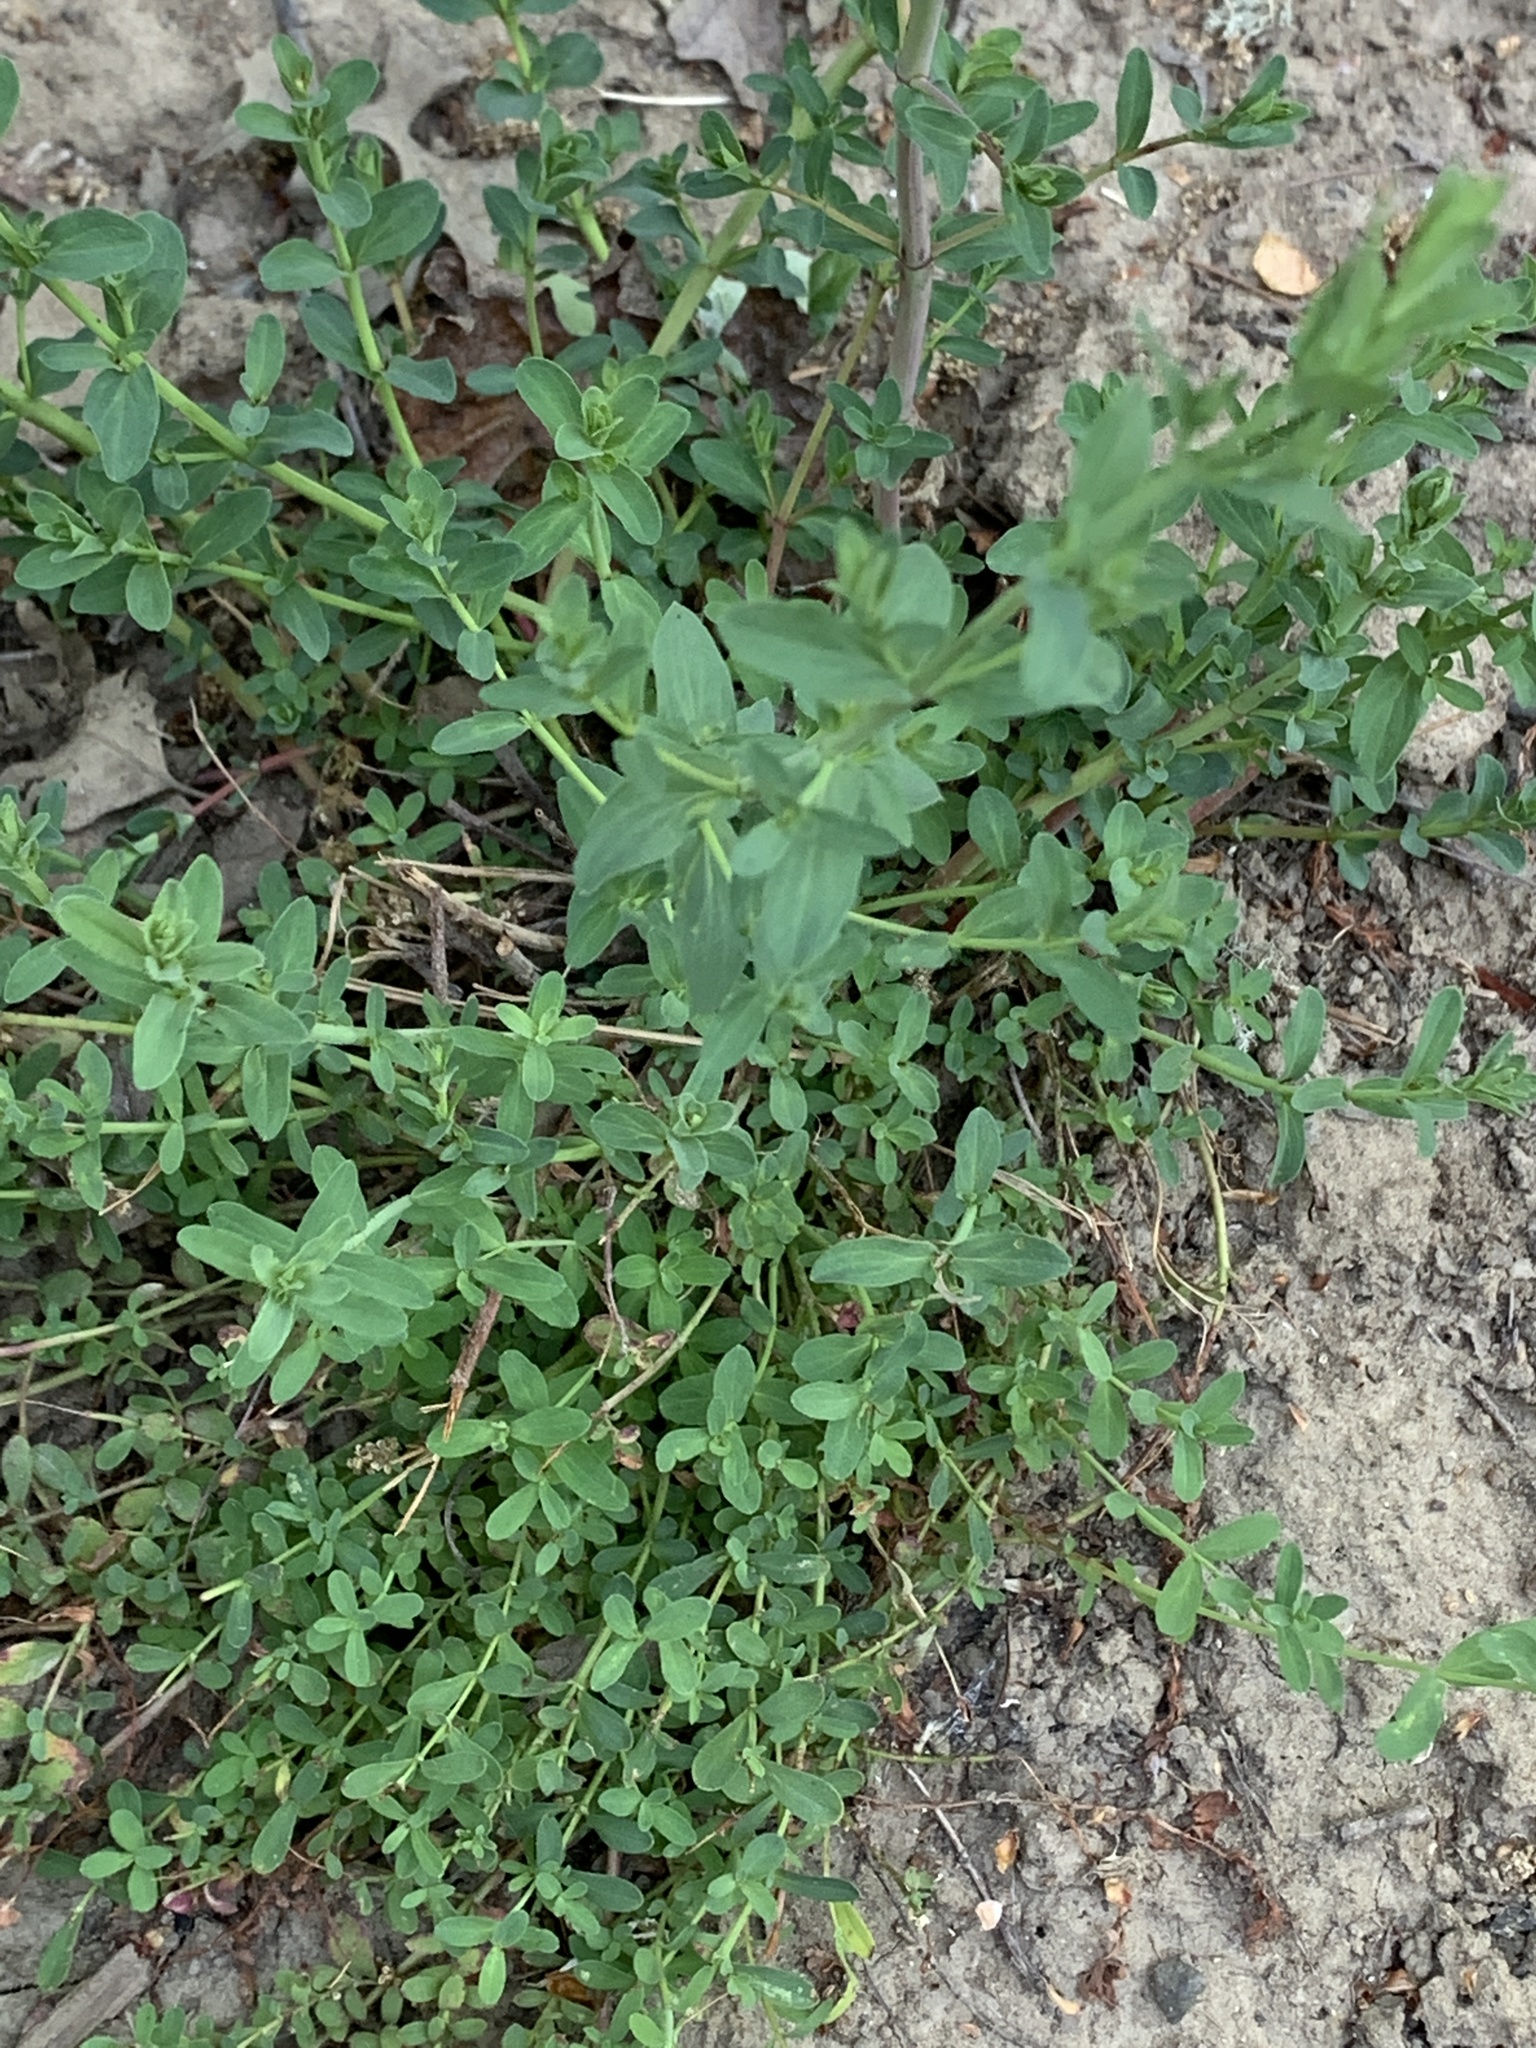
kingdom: Plantae
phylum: Tracheophyta
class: Magnoliopsida
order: Fabales
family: Fabaceae
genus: Genista
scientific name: Genista monspessulana
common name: Montpellier broom
